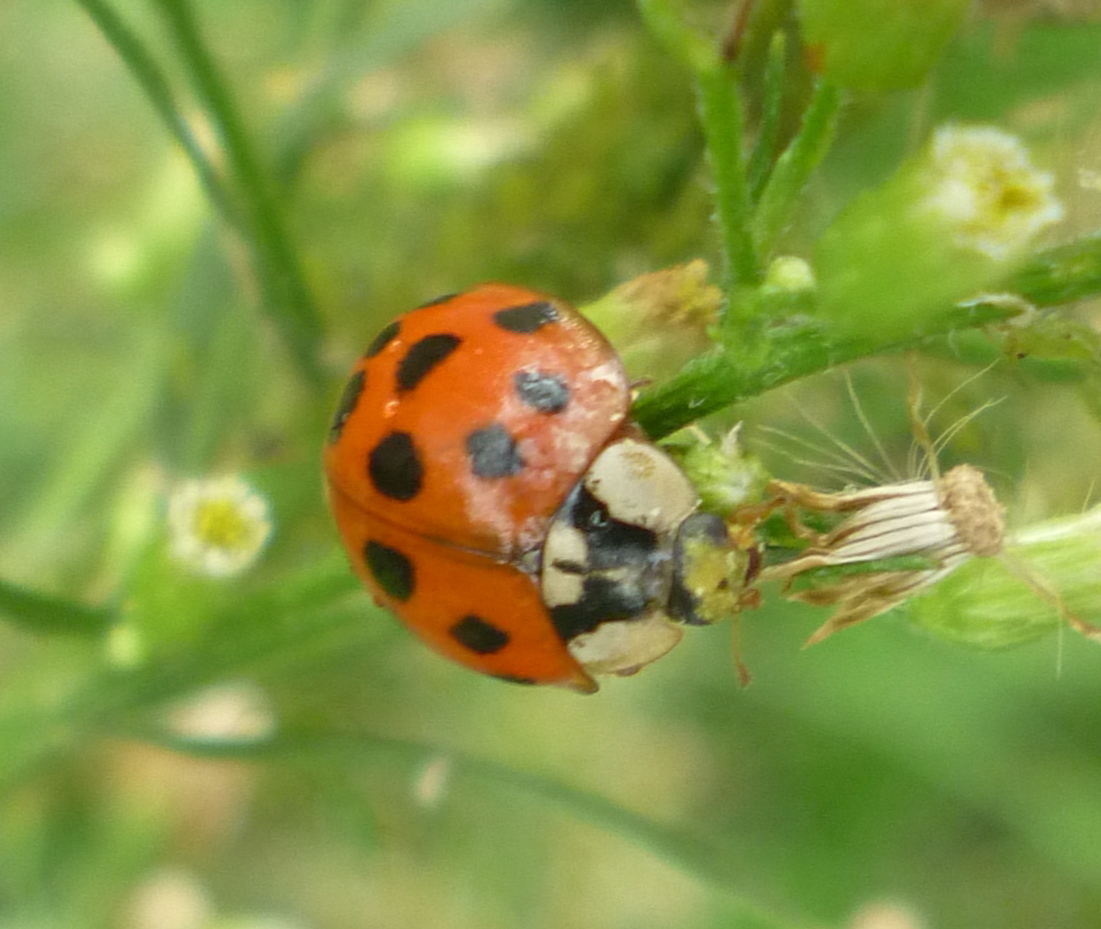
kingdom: Animalia
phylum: Arthropoda
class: Insecta
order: Coleoptera
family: Coccinellidae
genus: Harmonia
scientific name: Harmonia axyridis
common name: Harlequin ladybird
